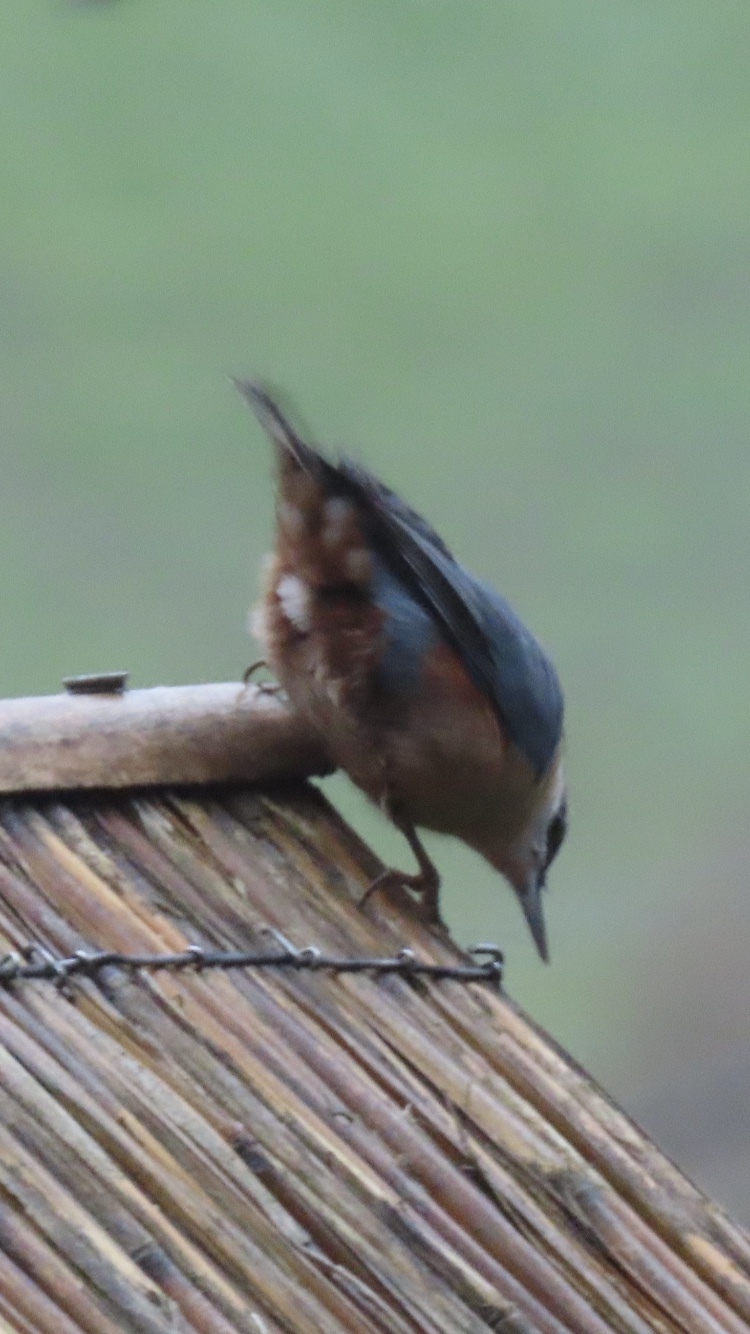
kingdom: Animalia
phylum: Chordata
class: Aves
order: Passeriformes
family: Sittidae
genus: Sitta
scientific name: Sitta europaea
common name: Eurasian nuthatch
